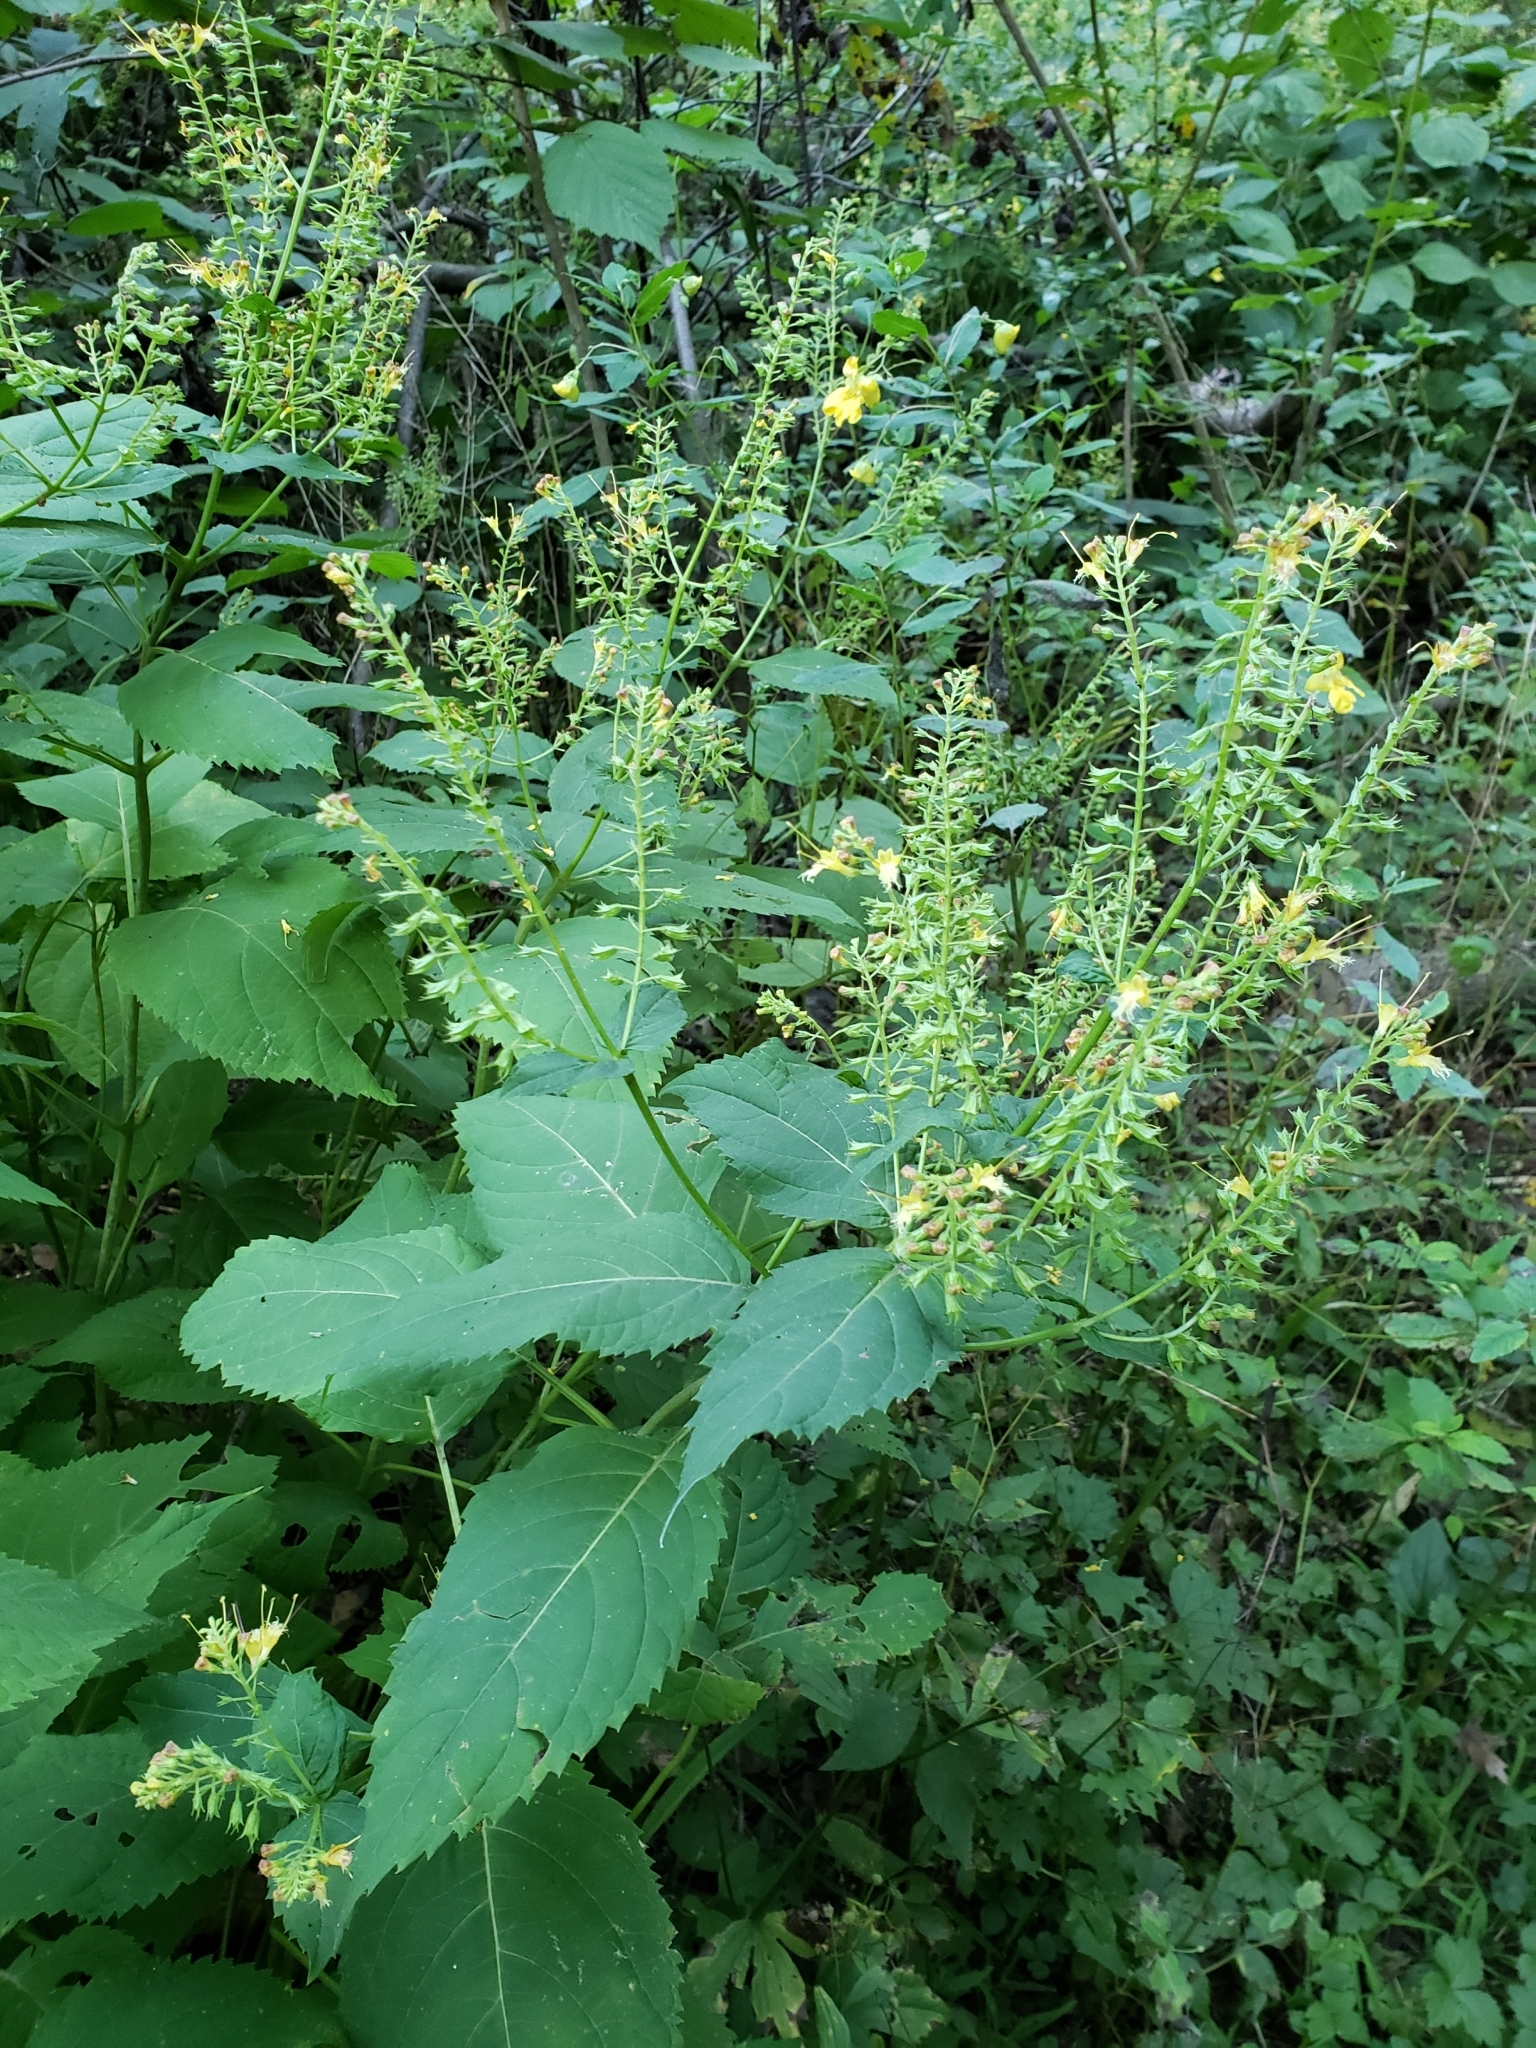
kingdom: Plantae
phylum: Tracheophyta
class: Magnoliopsida
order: Lamiales
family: Lamiaceae
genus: Collinsonia
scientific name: Collinsonia canadensis
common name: Northern horsebalm
